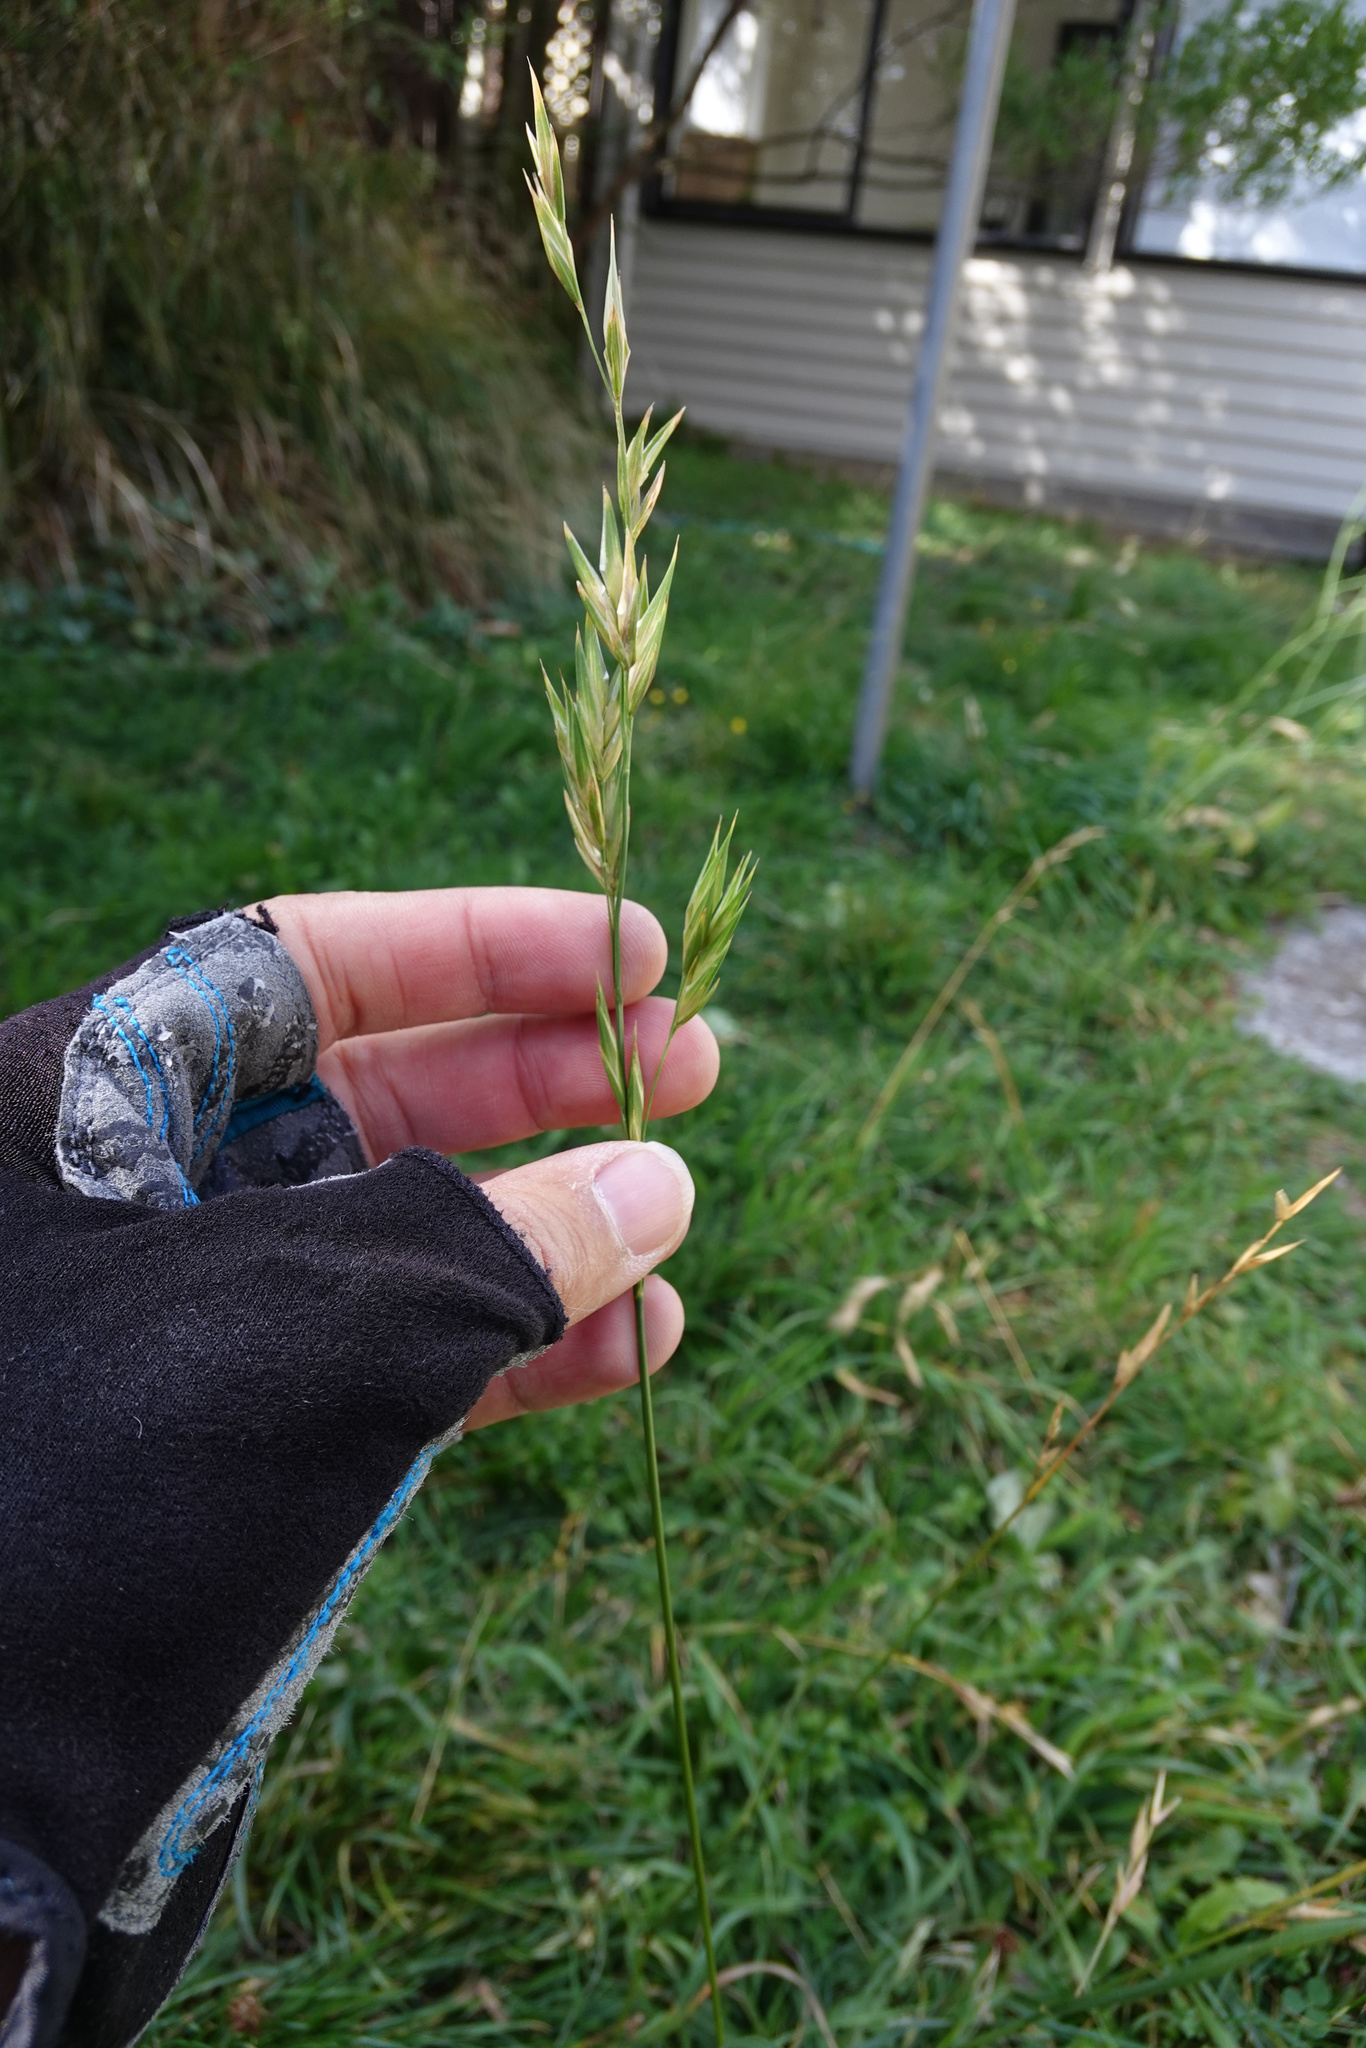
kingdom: Plantae
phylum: Tracheophyta
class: Liliopsida
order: Poales
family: Poaceae
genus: Bromus
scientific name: Bromus catharticus
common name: Rescuegrass
